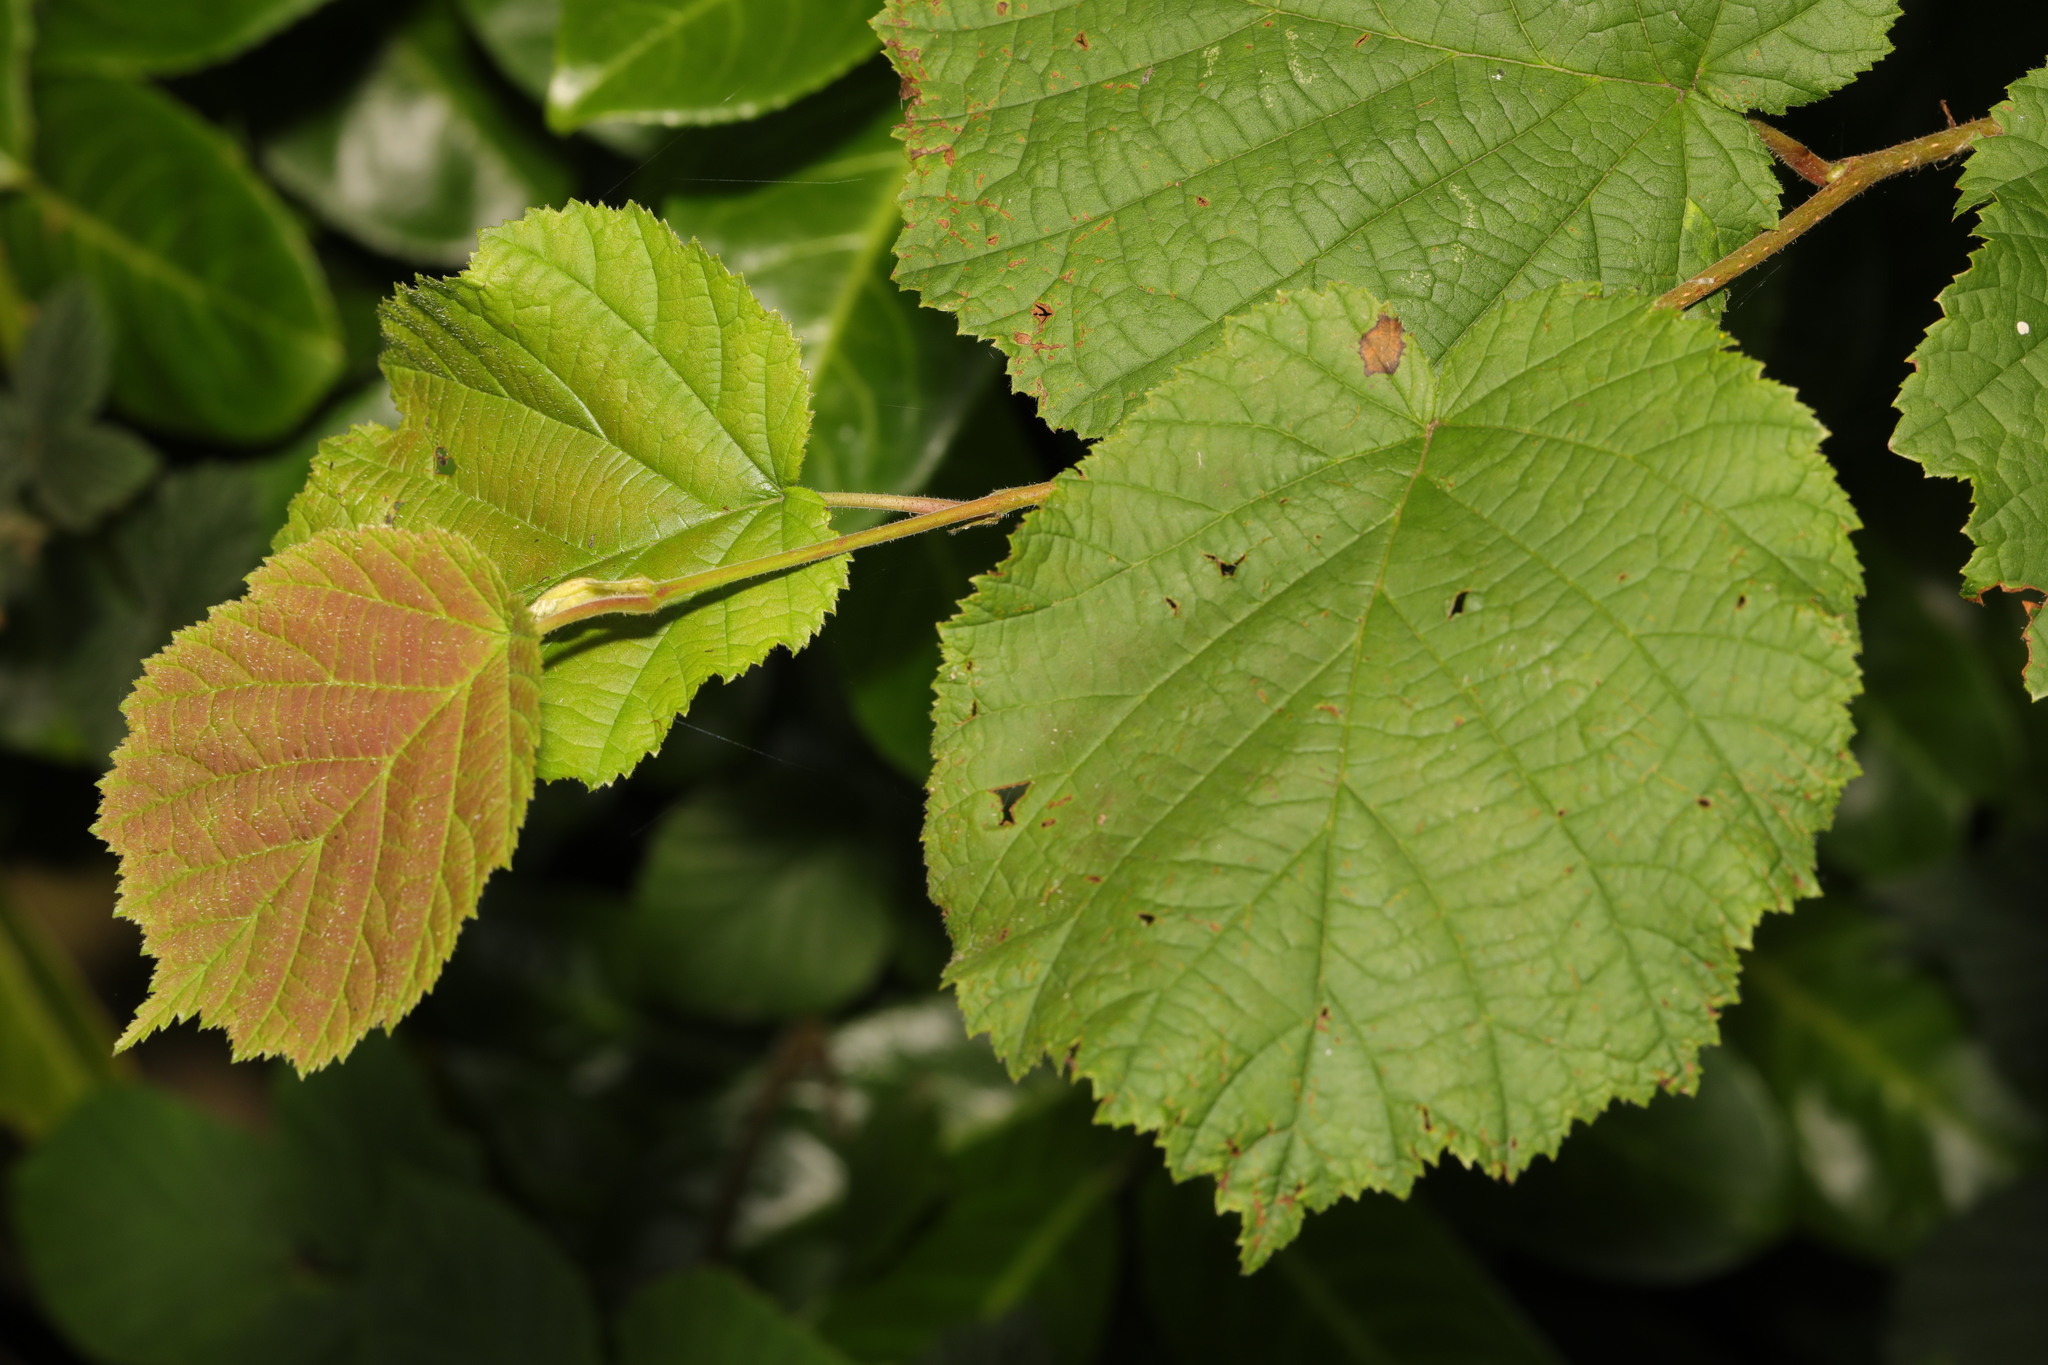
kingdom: Plantae
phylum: Tracheophyta
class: Magnoliopsida
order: Fagales
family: Betulaceae
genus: Corylus
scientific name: Corylus avellana
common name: European hazel
